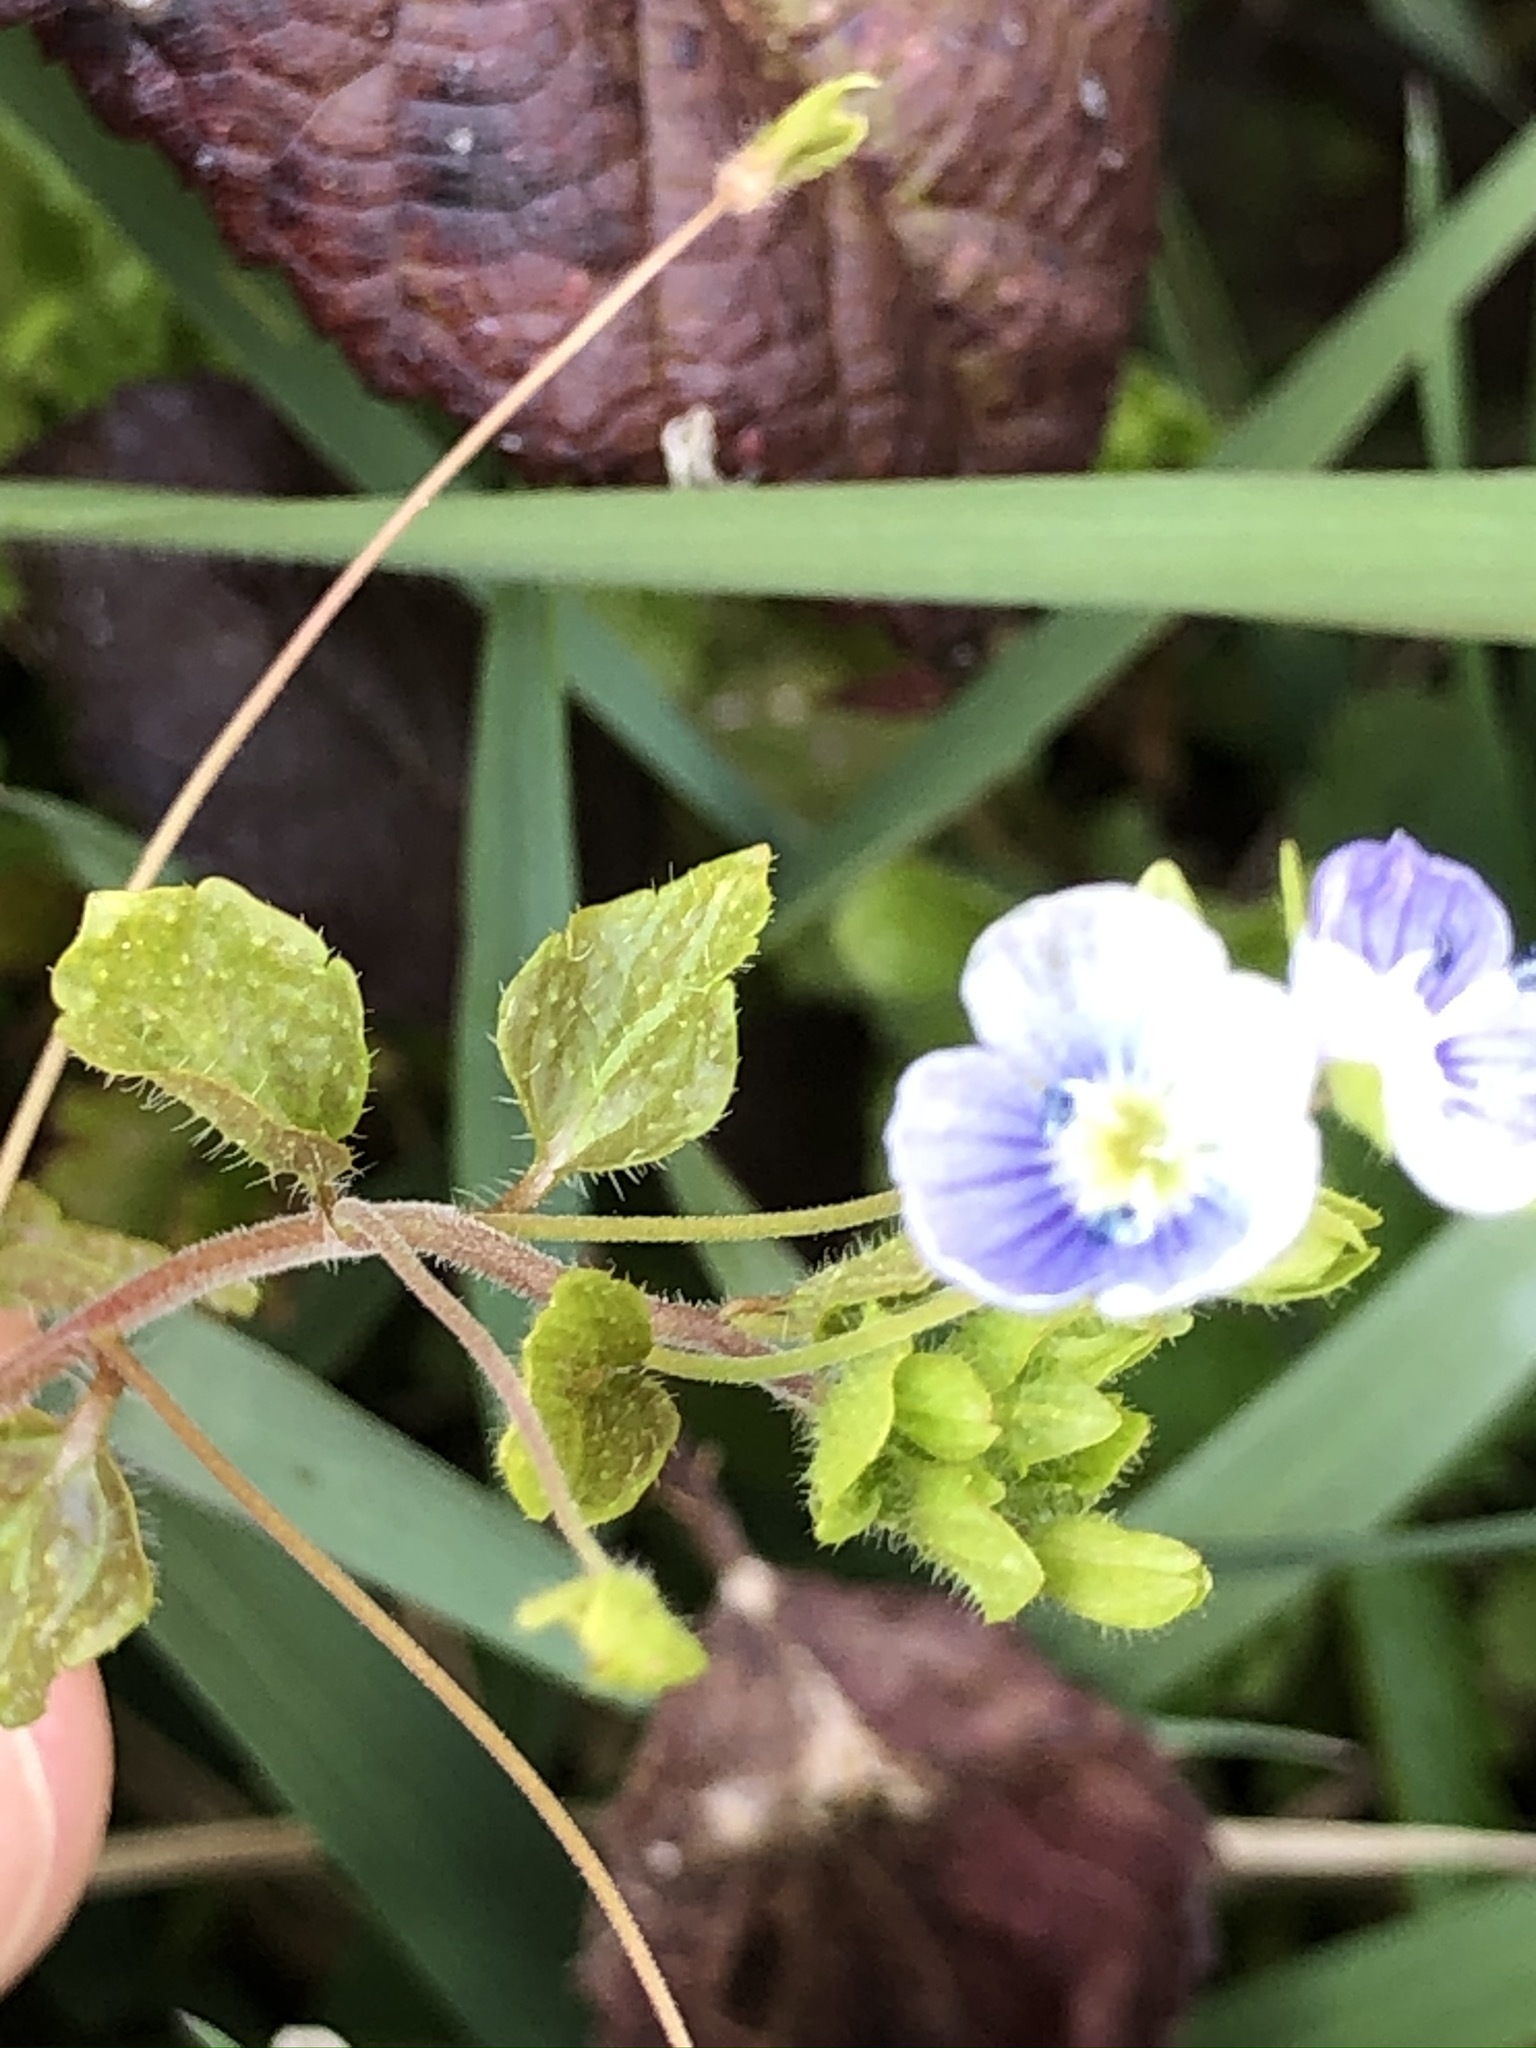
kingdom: Plantae
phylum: Tracheophyta
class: Magnoliopsida
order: Lamiales
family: Plantaginaceae
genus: Veronica
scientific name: Veronica filiformis
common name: Slender speedwell
